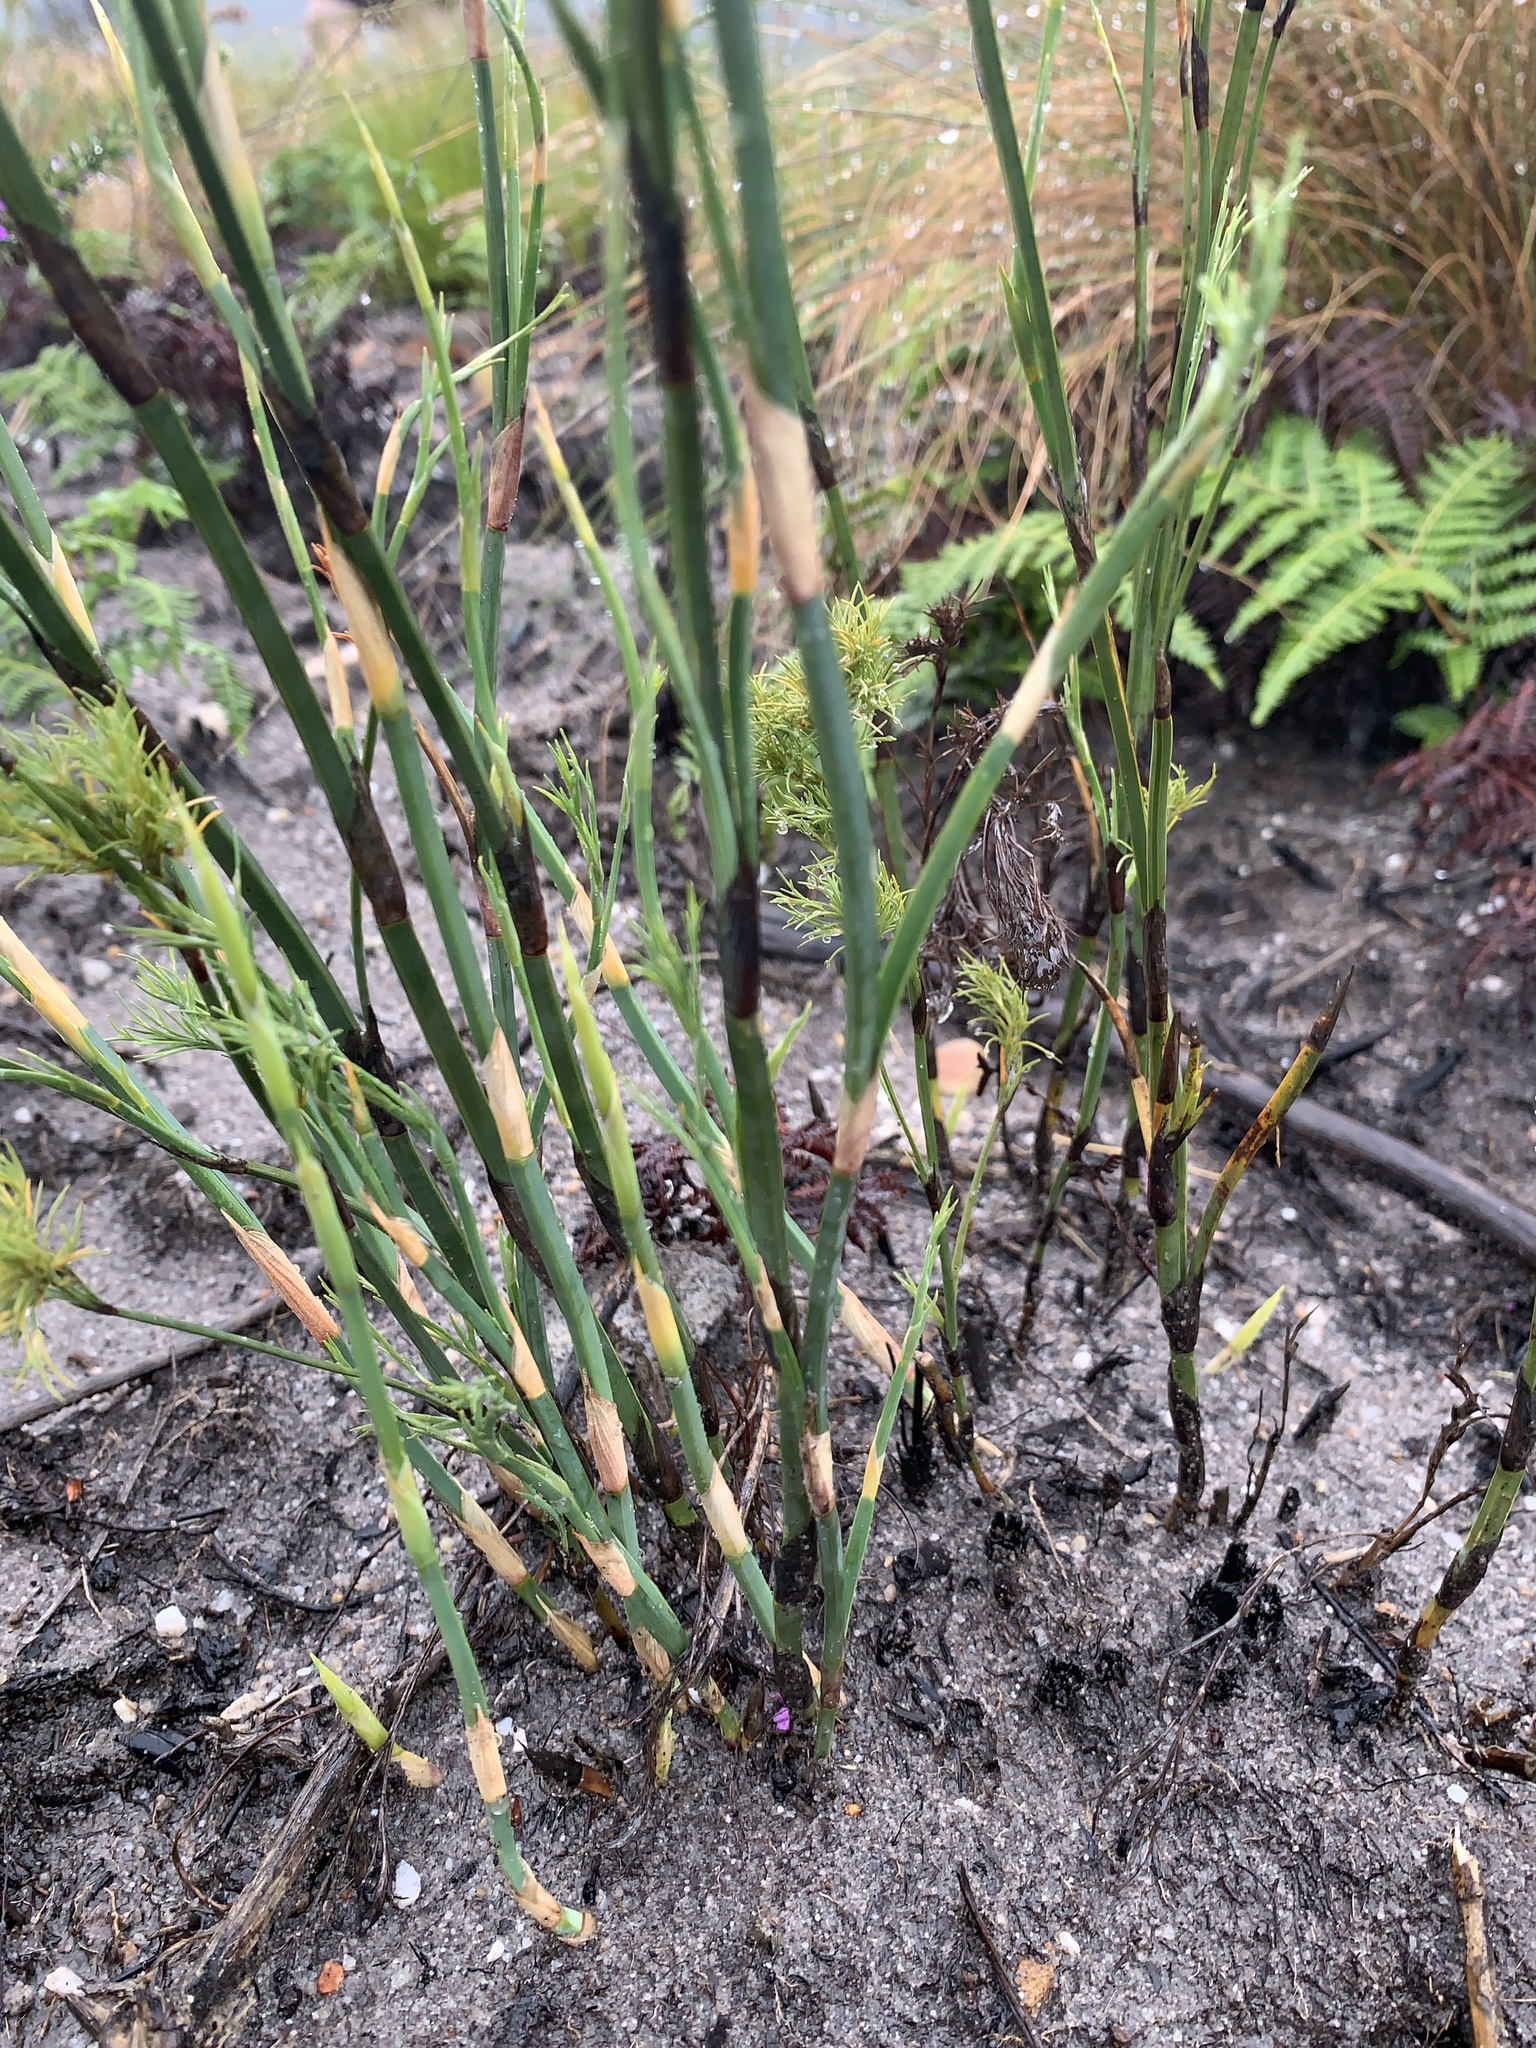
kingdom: Plantae
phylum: Tracheophyta
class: Liliopsida
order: Poales
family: Restionaceae
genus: Restio
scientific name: Restio tetragonus
